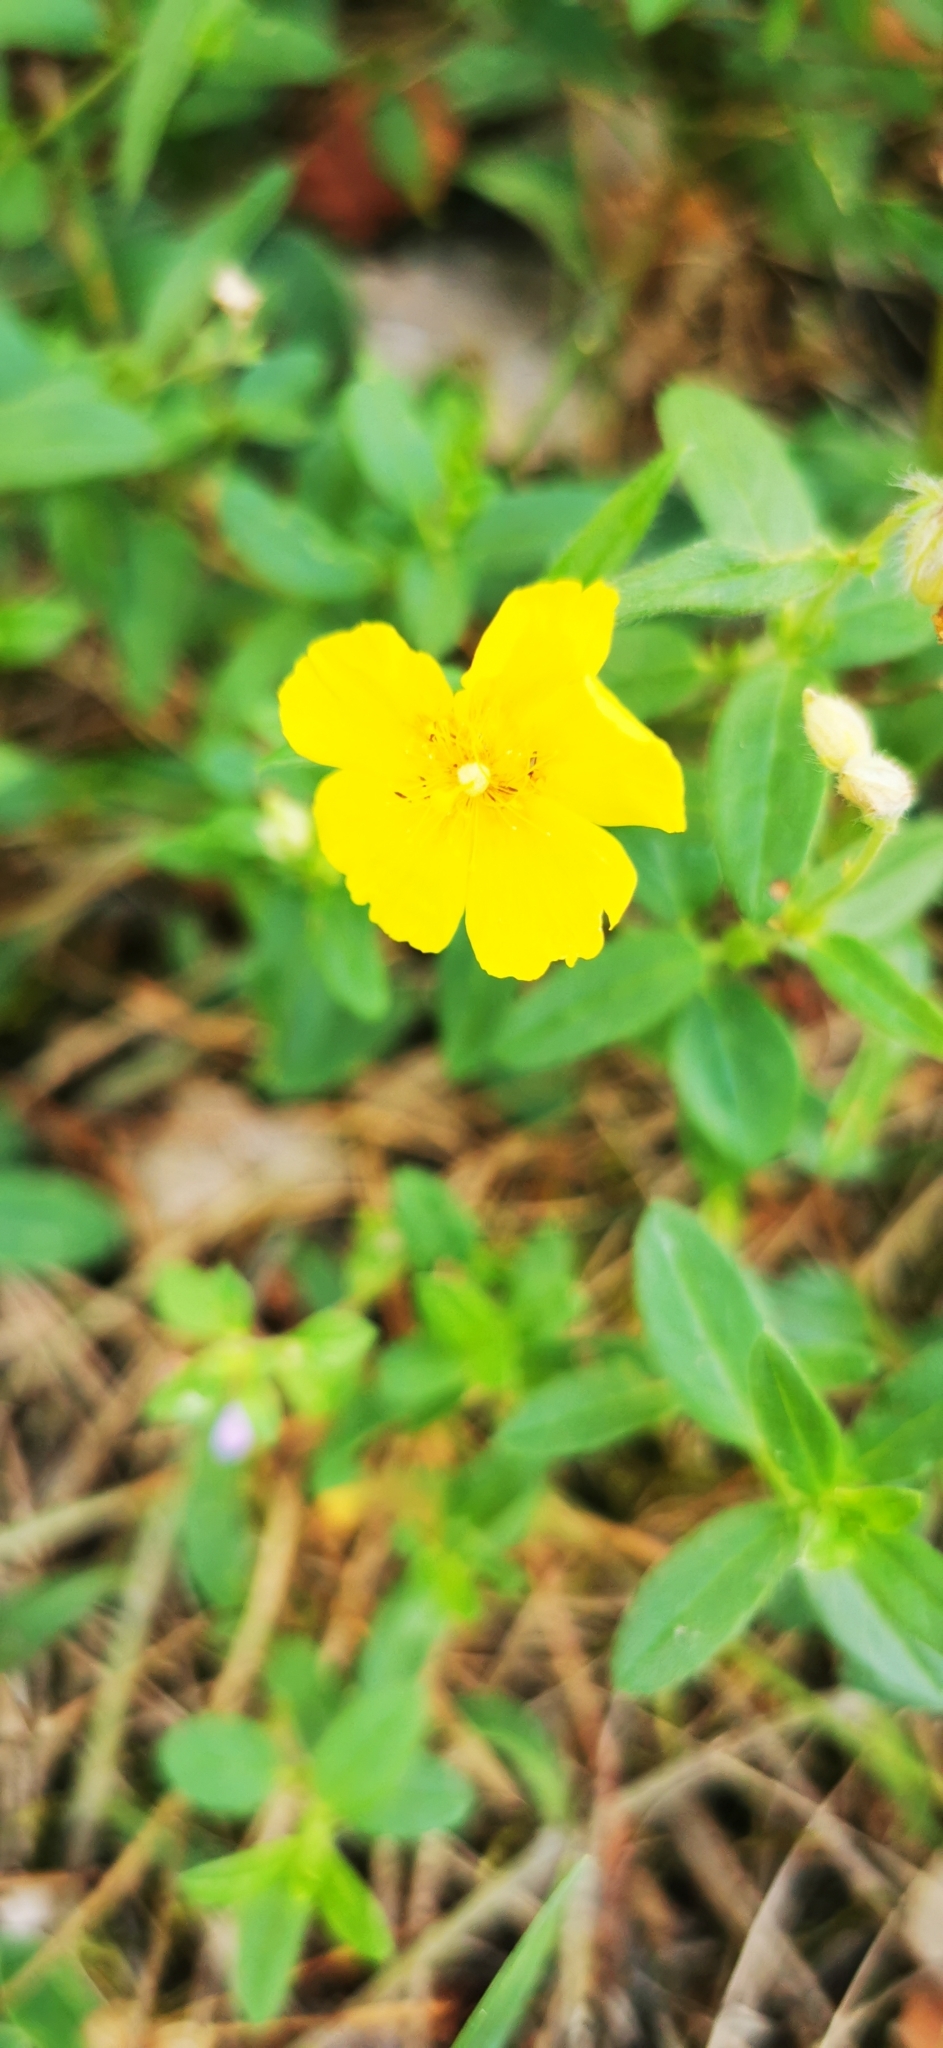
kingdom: Plantae
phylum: Tracheophyta
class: Magnoliopsida
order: Malvales
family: Cistaceae
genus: Helianthemum
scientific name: Helianthemum nummularium
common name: Common rock-rose
